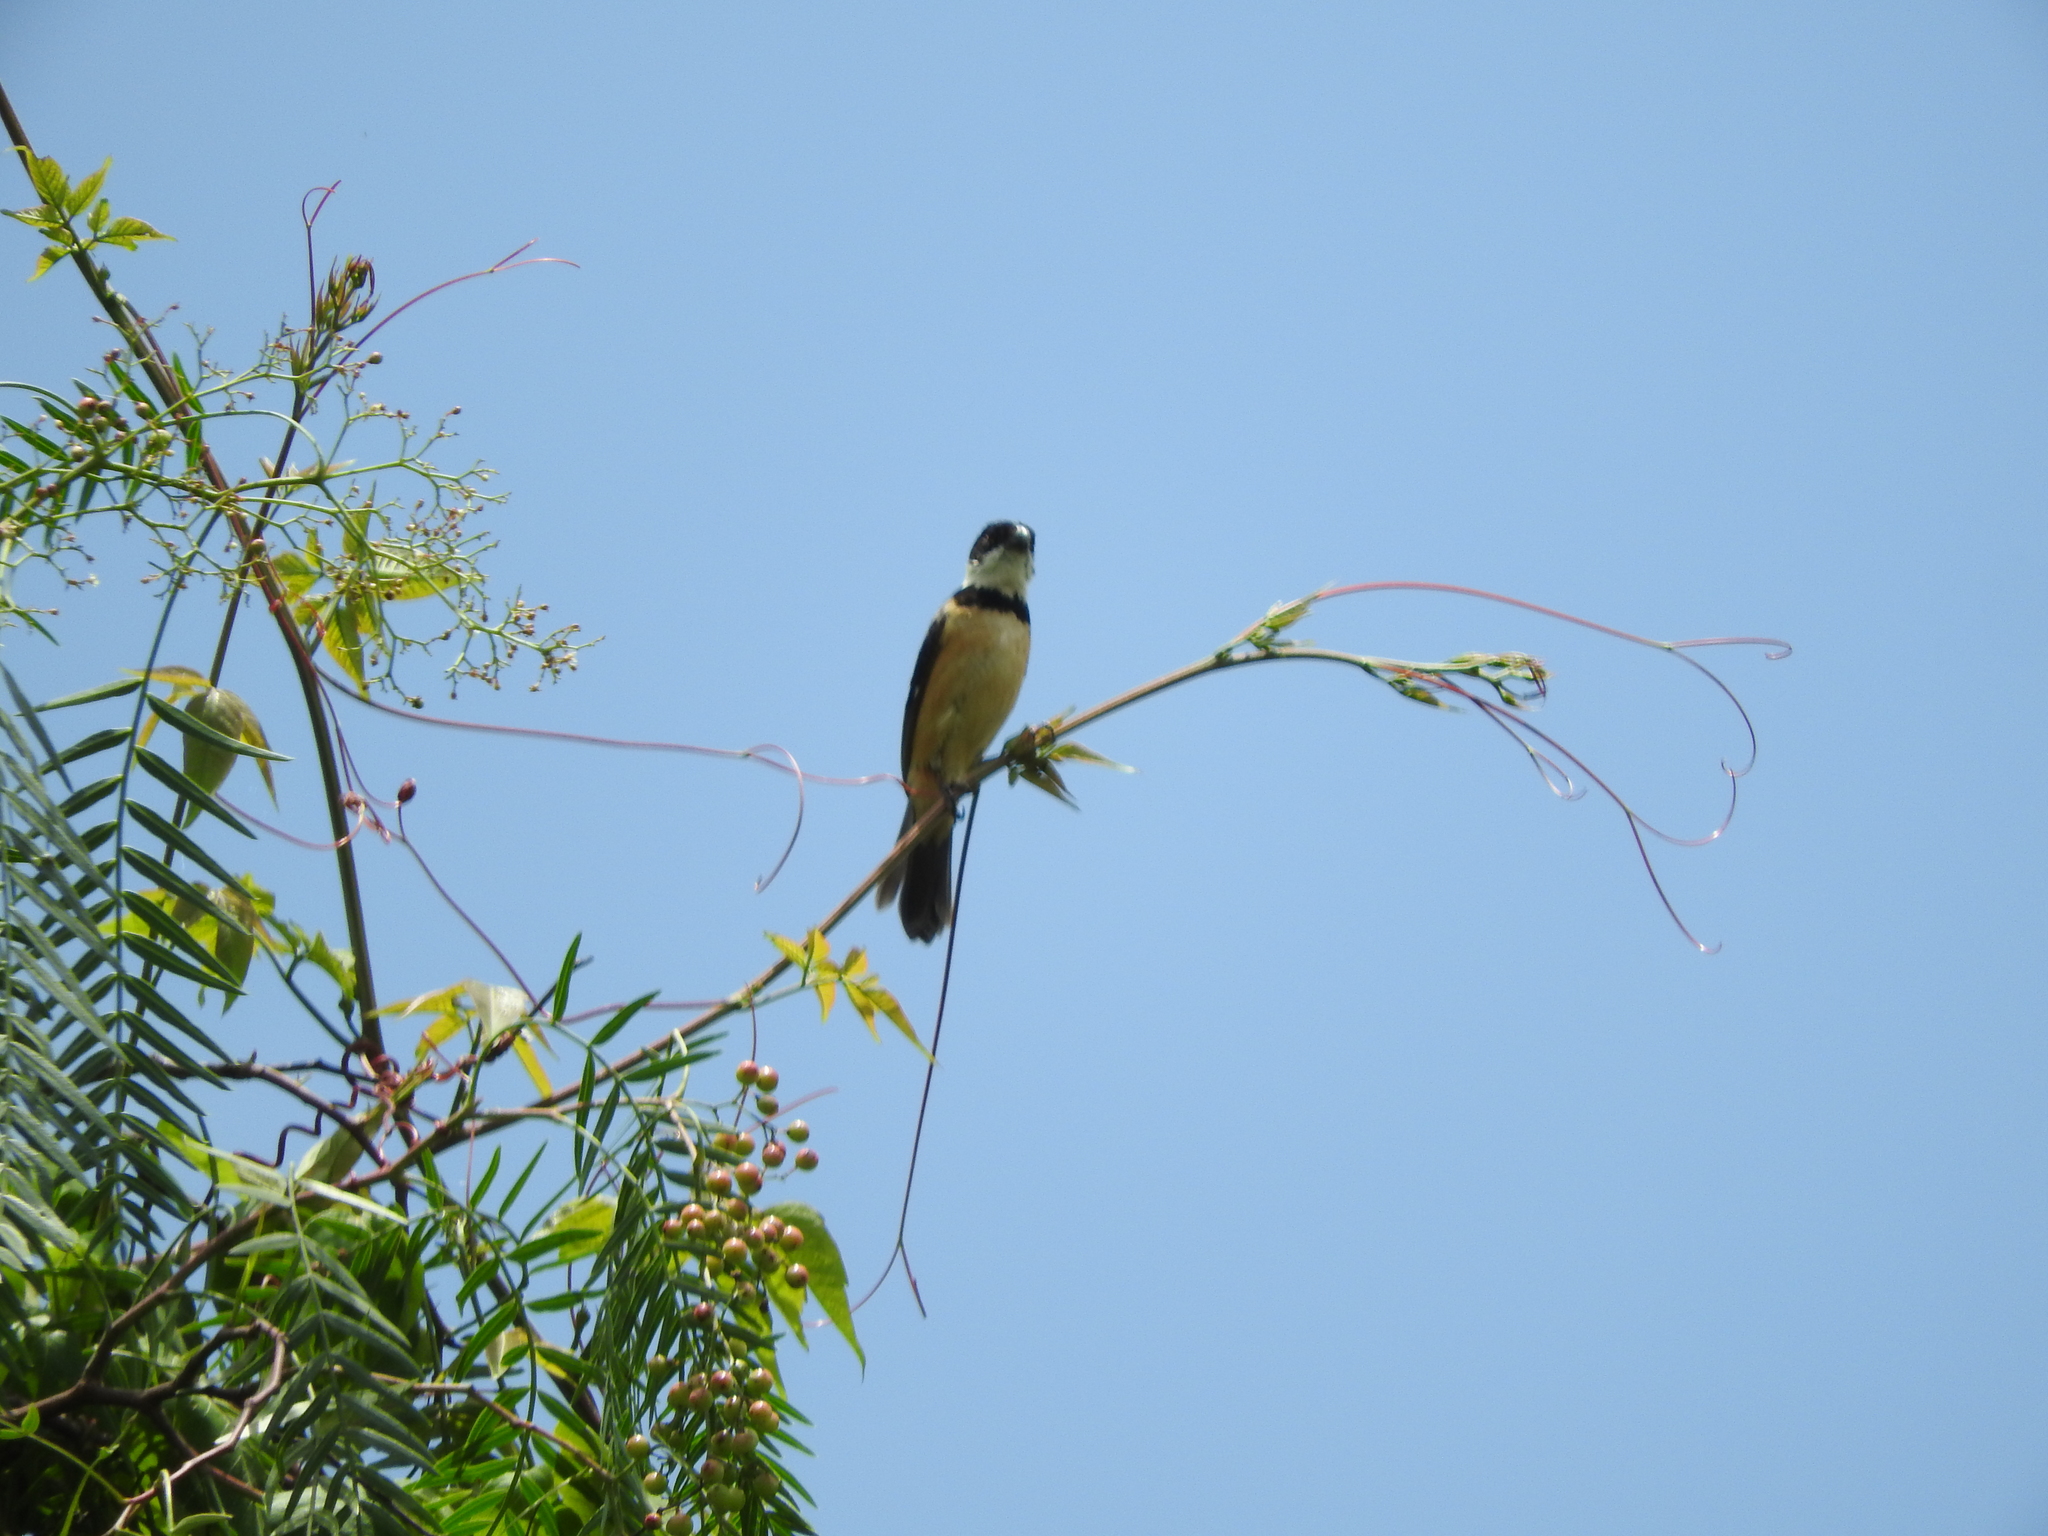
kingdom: Animalia
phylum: Chordata
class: Aves
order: Passeriformes
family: Thraupidae
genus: Sporophila
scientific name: Sporophila torqueola
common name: White-collared seedeater
